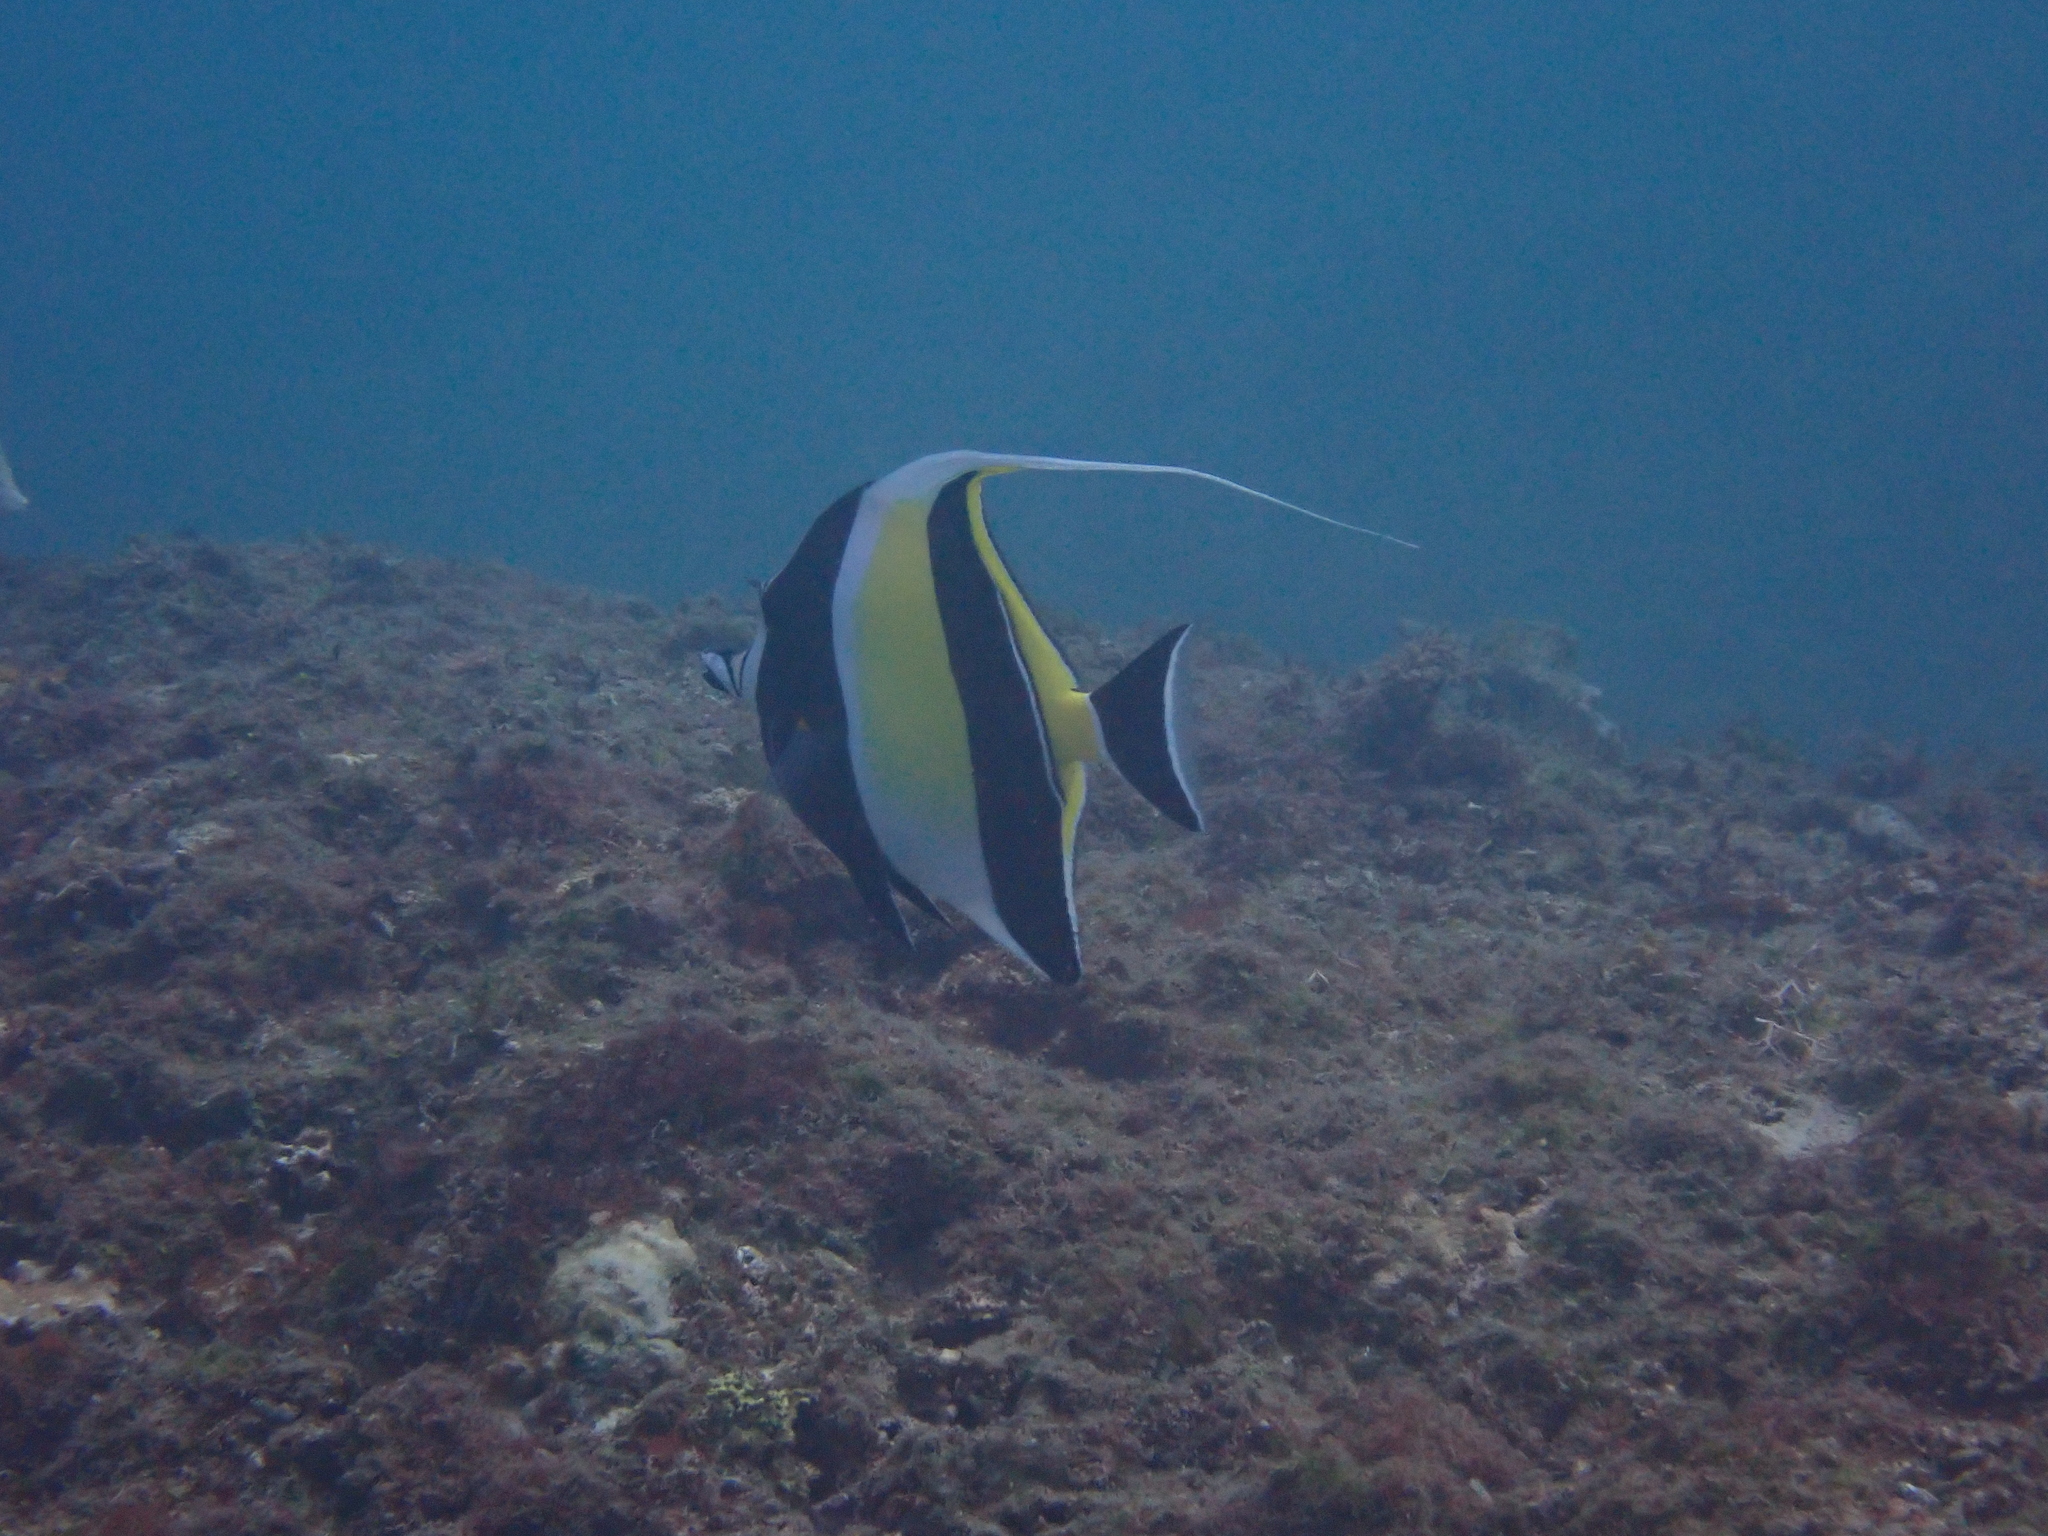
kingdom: Animalia
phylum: Chordata
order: Perciformes
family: Zanclidae
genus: Zanclus
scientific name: Zanclus cornutus
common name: Moorish idol
